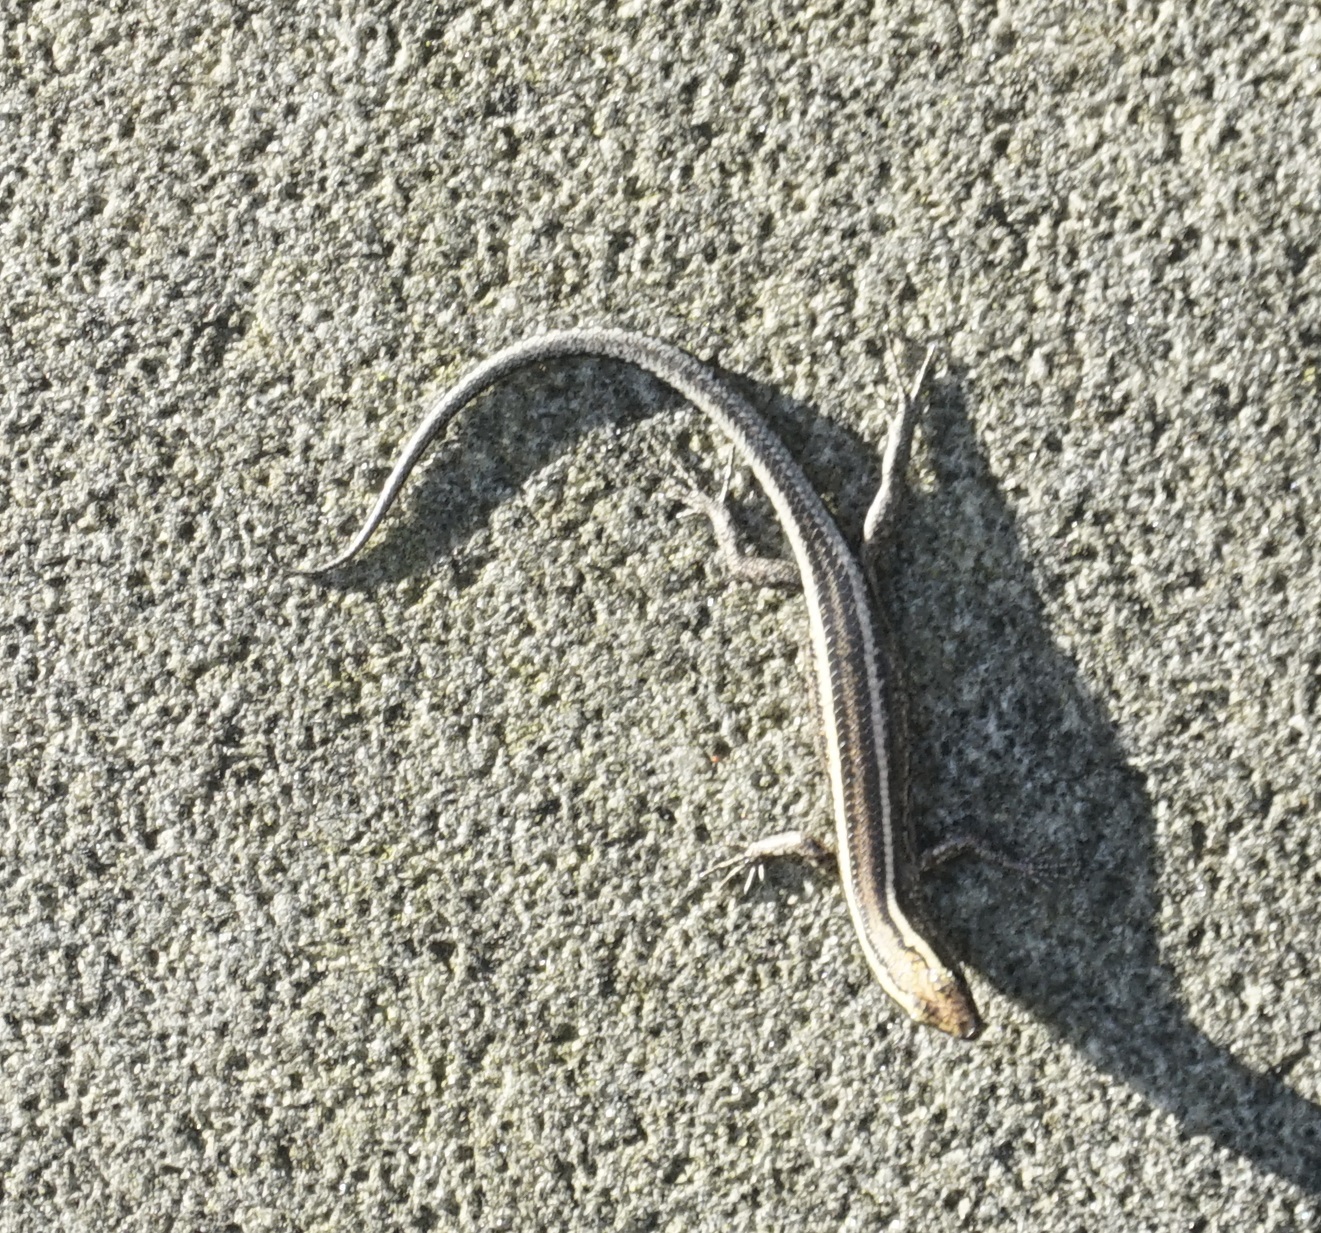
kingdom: Animalia
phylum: Chordata
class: Squamata
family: Scincidae
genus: Cryptoblepharus
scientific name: Cryptoblepharus pulcher
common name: Elegant snake-eyed skink
